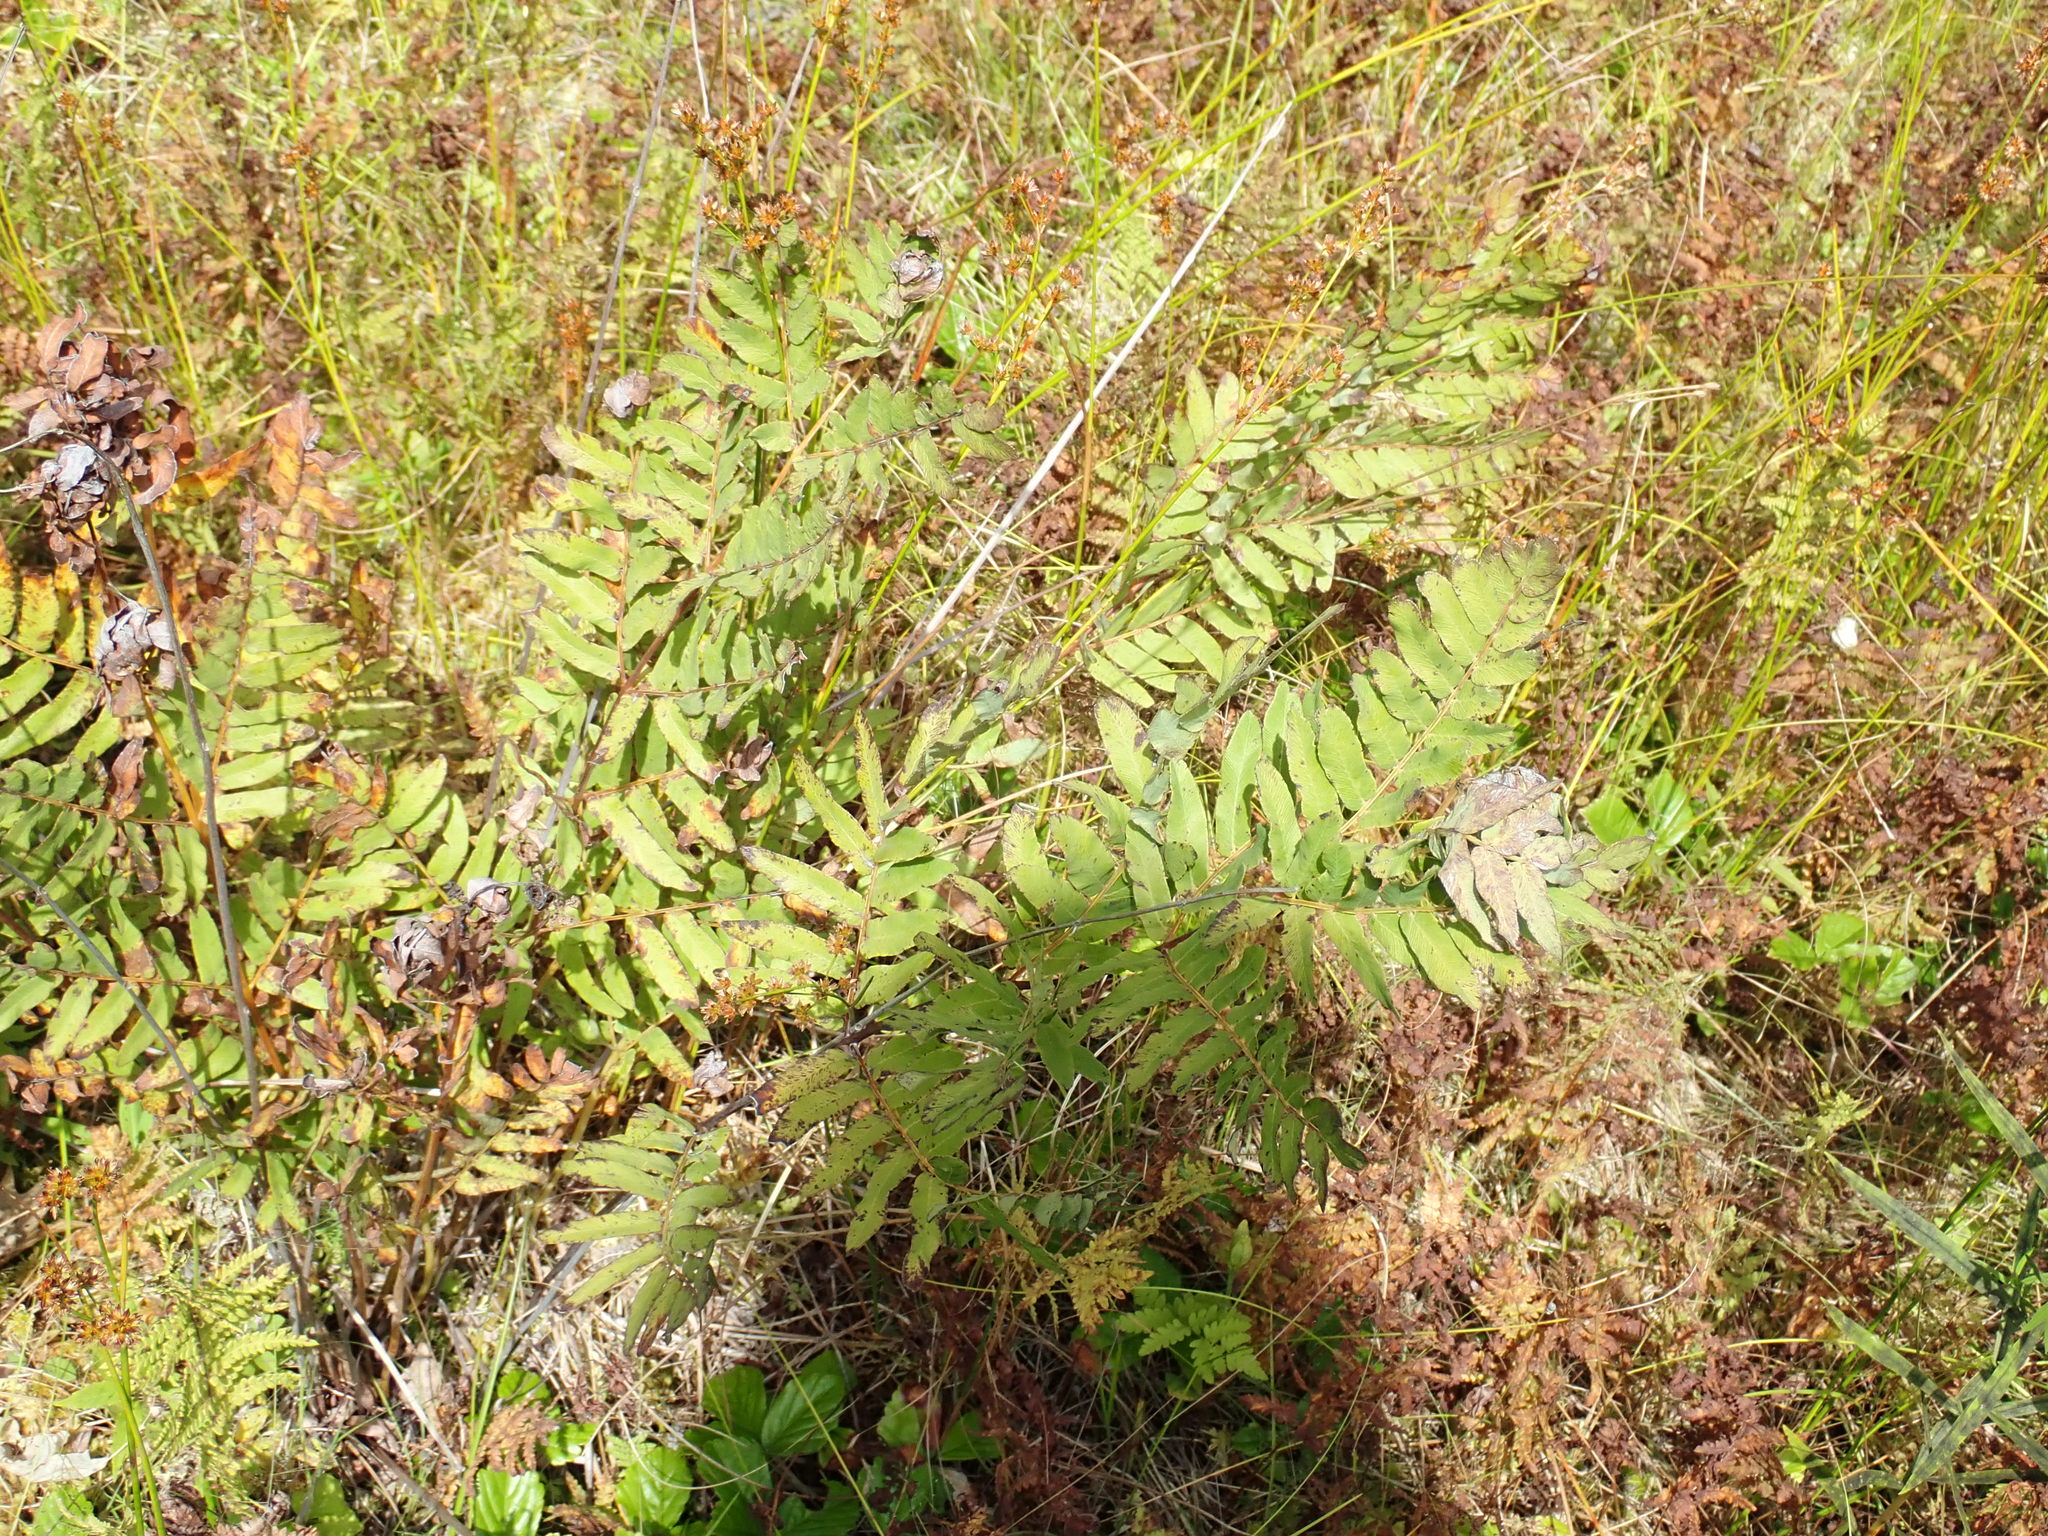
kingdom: Plantae
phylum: Tracheophyta
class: Polypodiopsida
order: Osmundales
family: Osmundaceae
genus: Osmunda
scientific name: Osmunda spectabilis
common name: American royal fern
